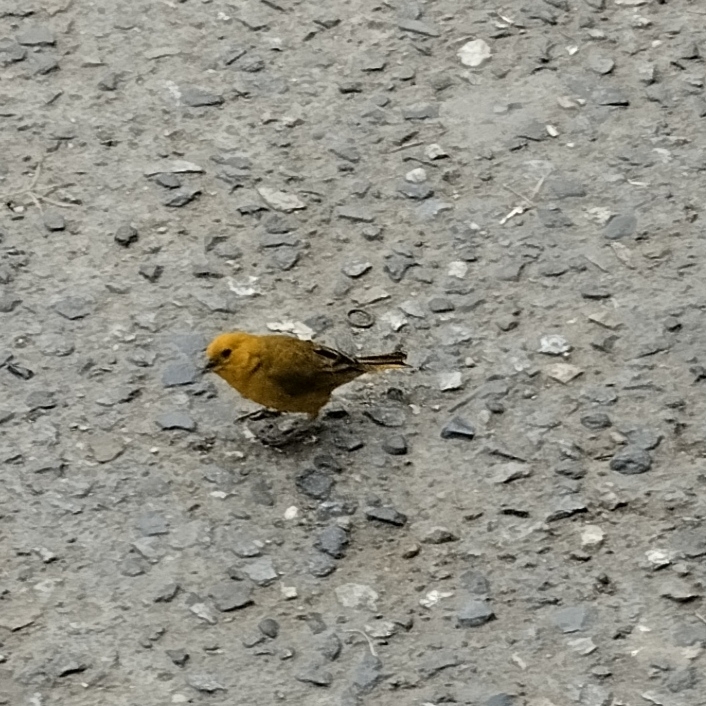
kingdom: Animalia
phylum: Chordata
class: Aves
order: Passeriformes
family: Thraupidae
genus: Sicalis
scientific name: Sicalis flaveola
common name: Saffron finch
